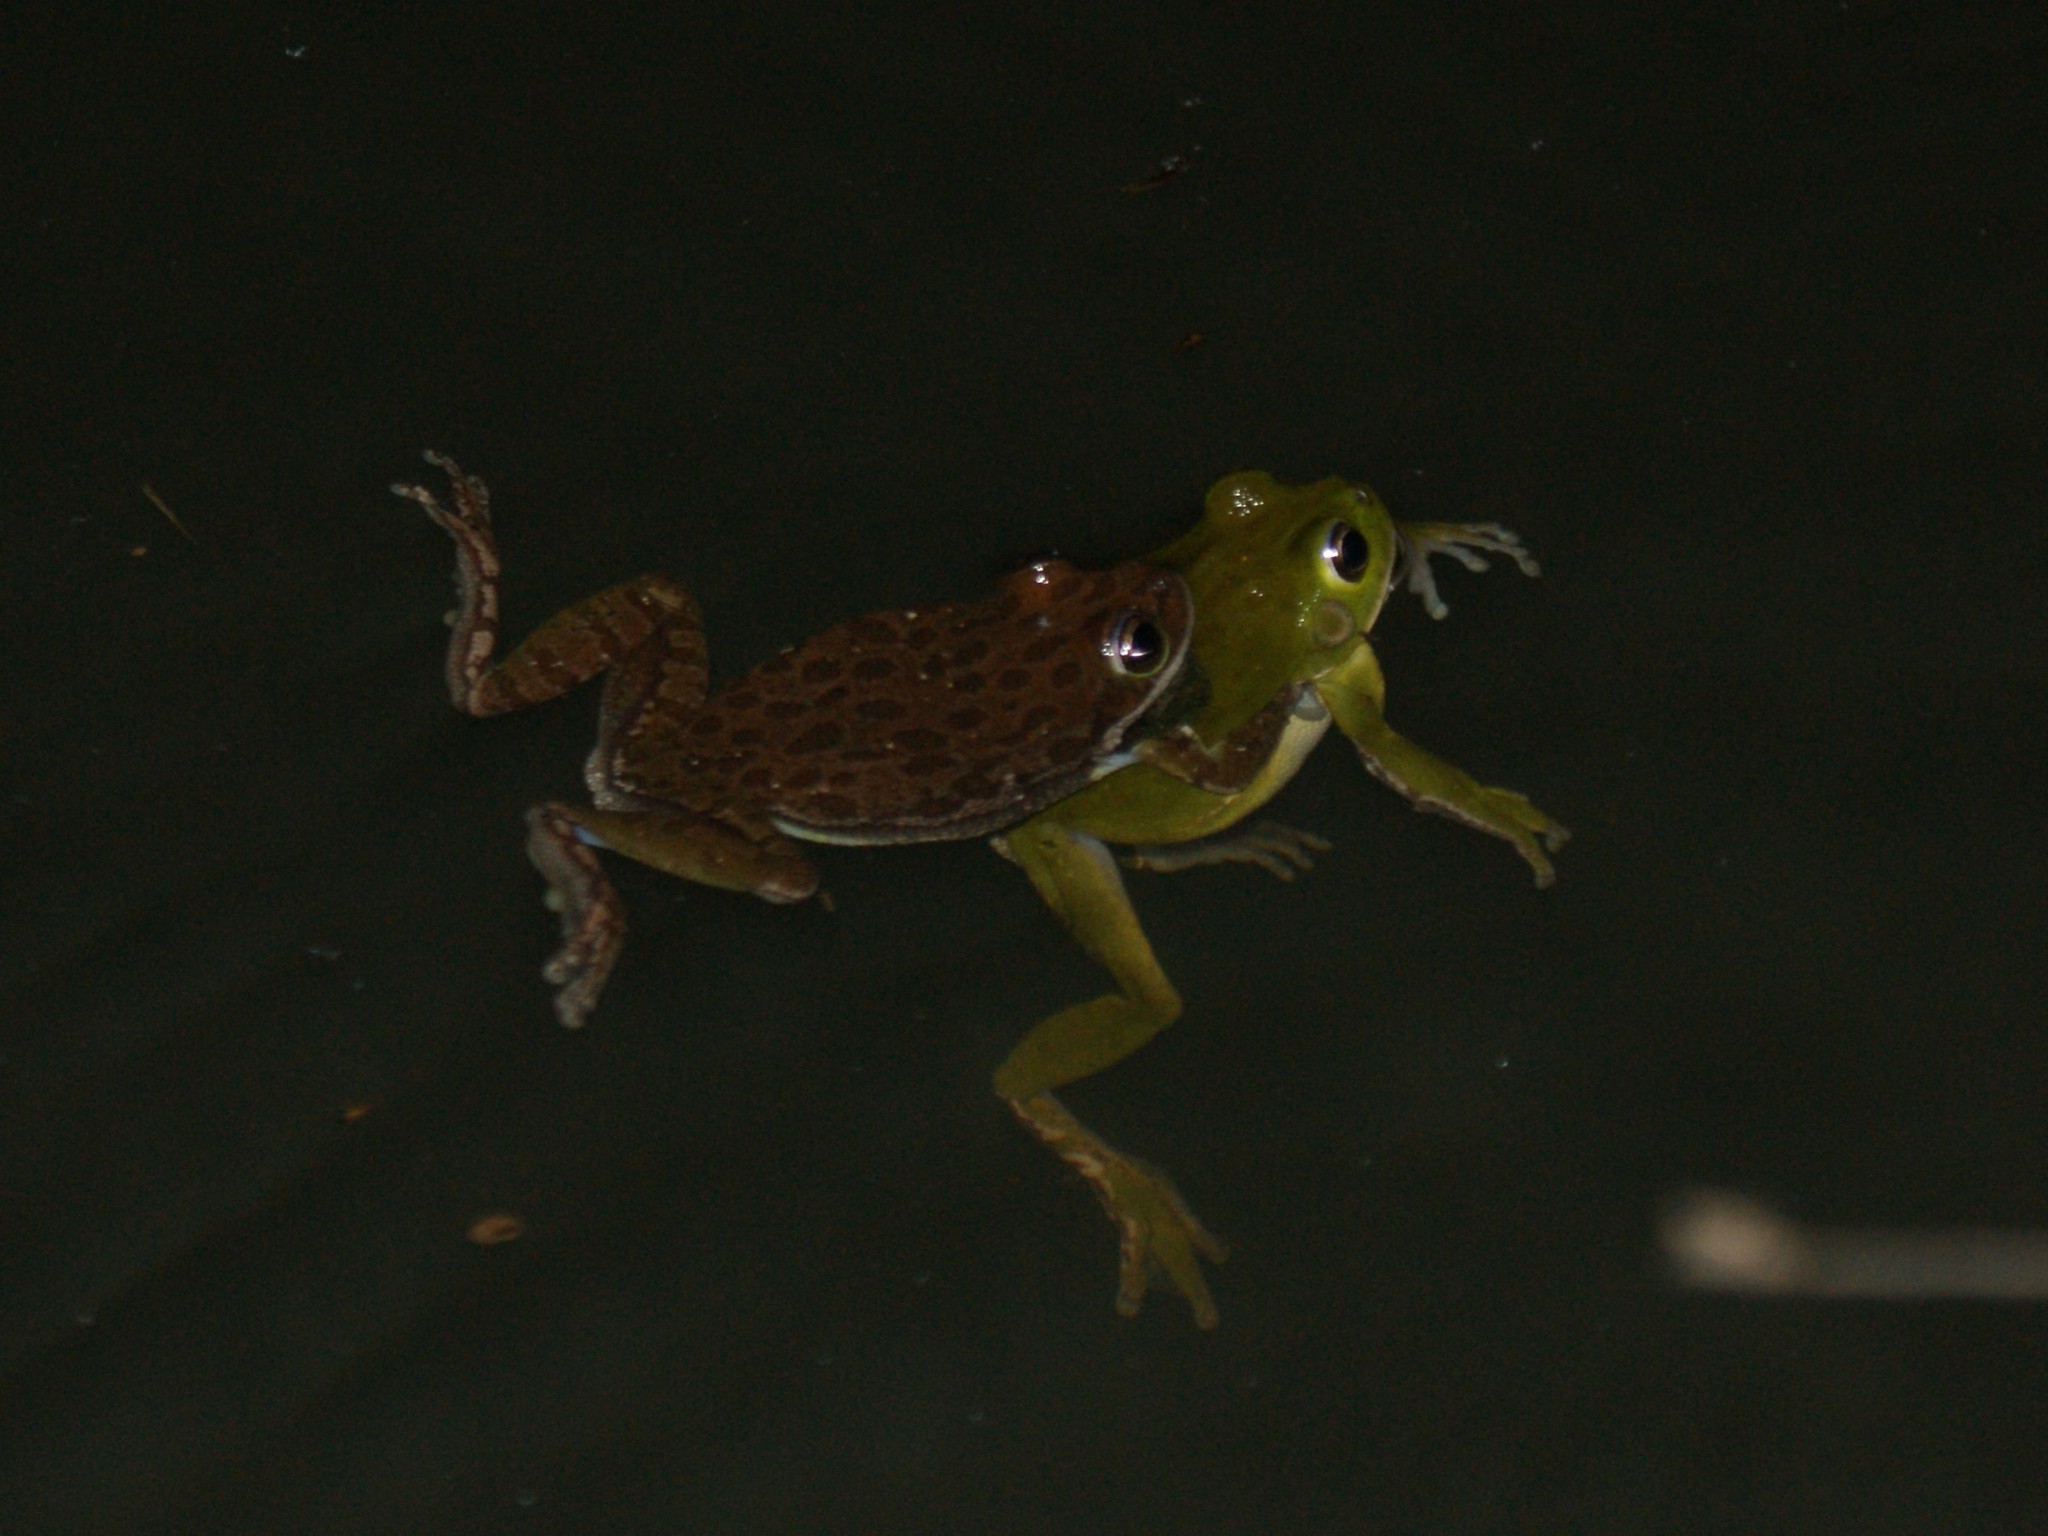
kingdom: Animalia
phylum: Chordata
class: Amphibia
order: Anura
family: Hylidae
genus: Dryophytes
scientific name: Dryophytes gratiosus
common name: Barking treefrog
